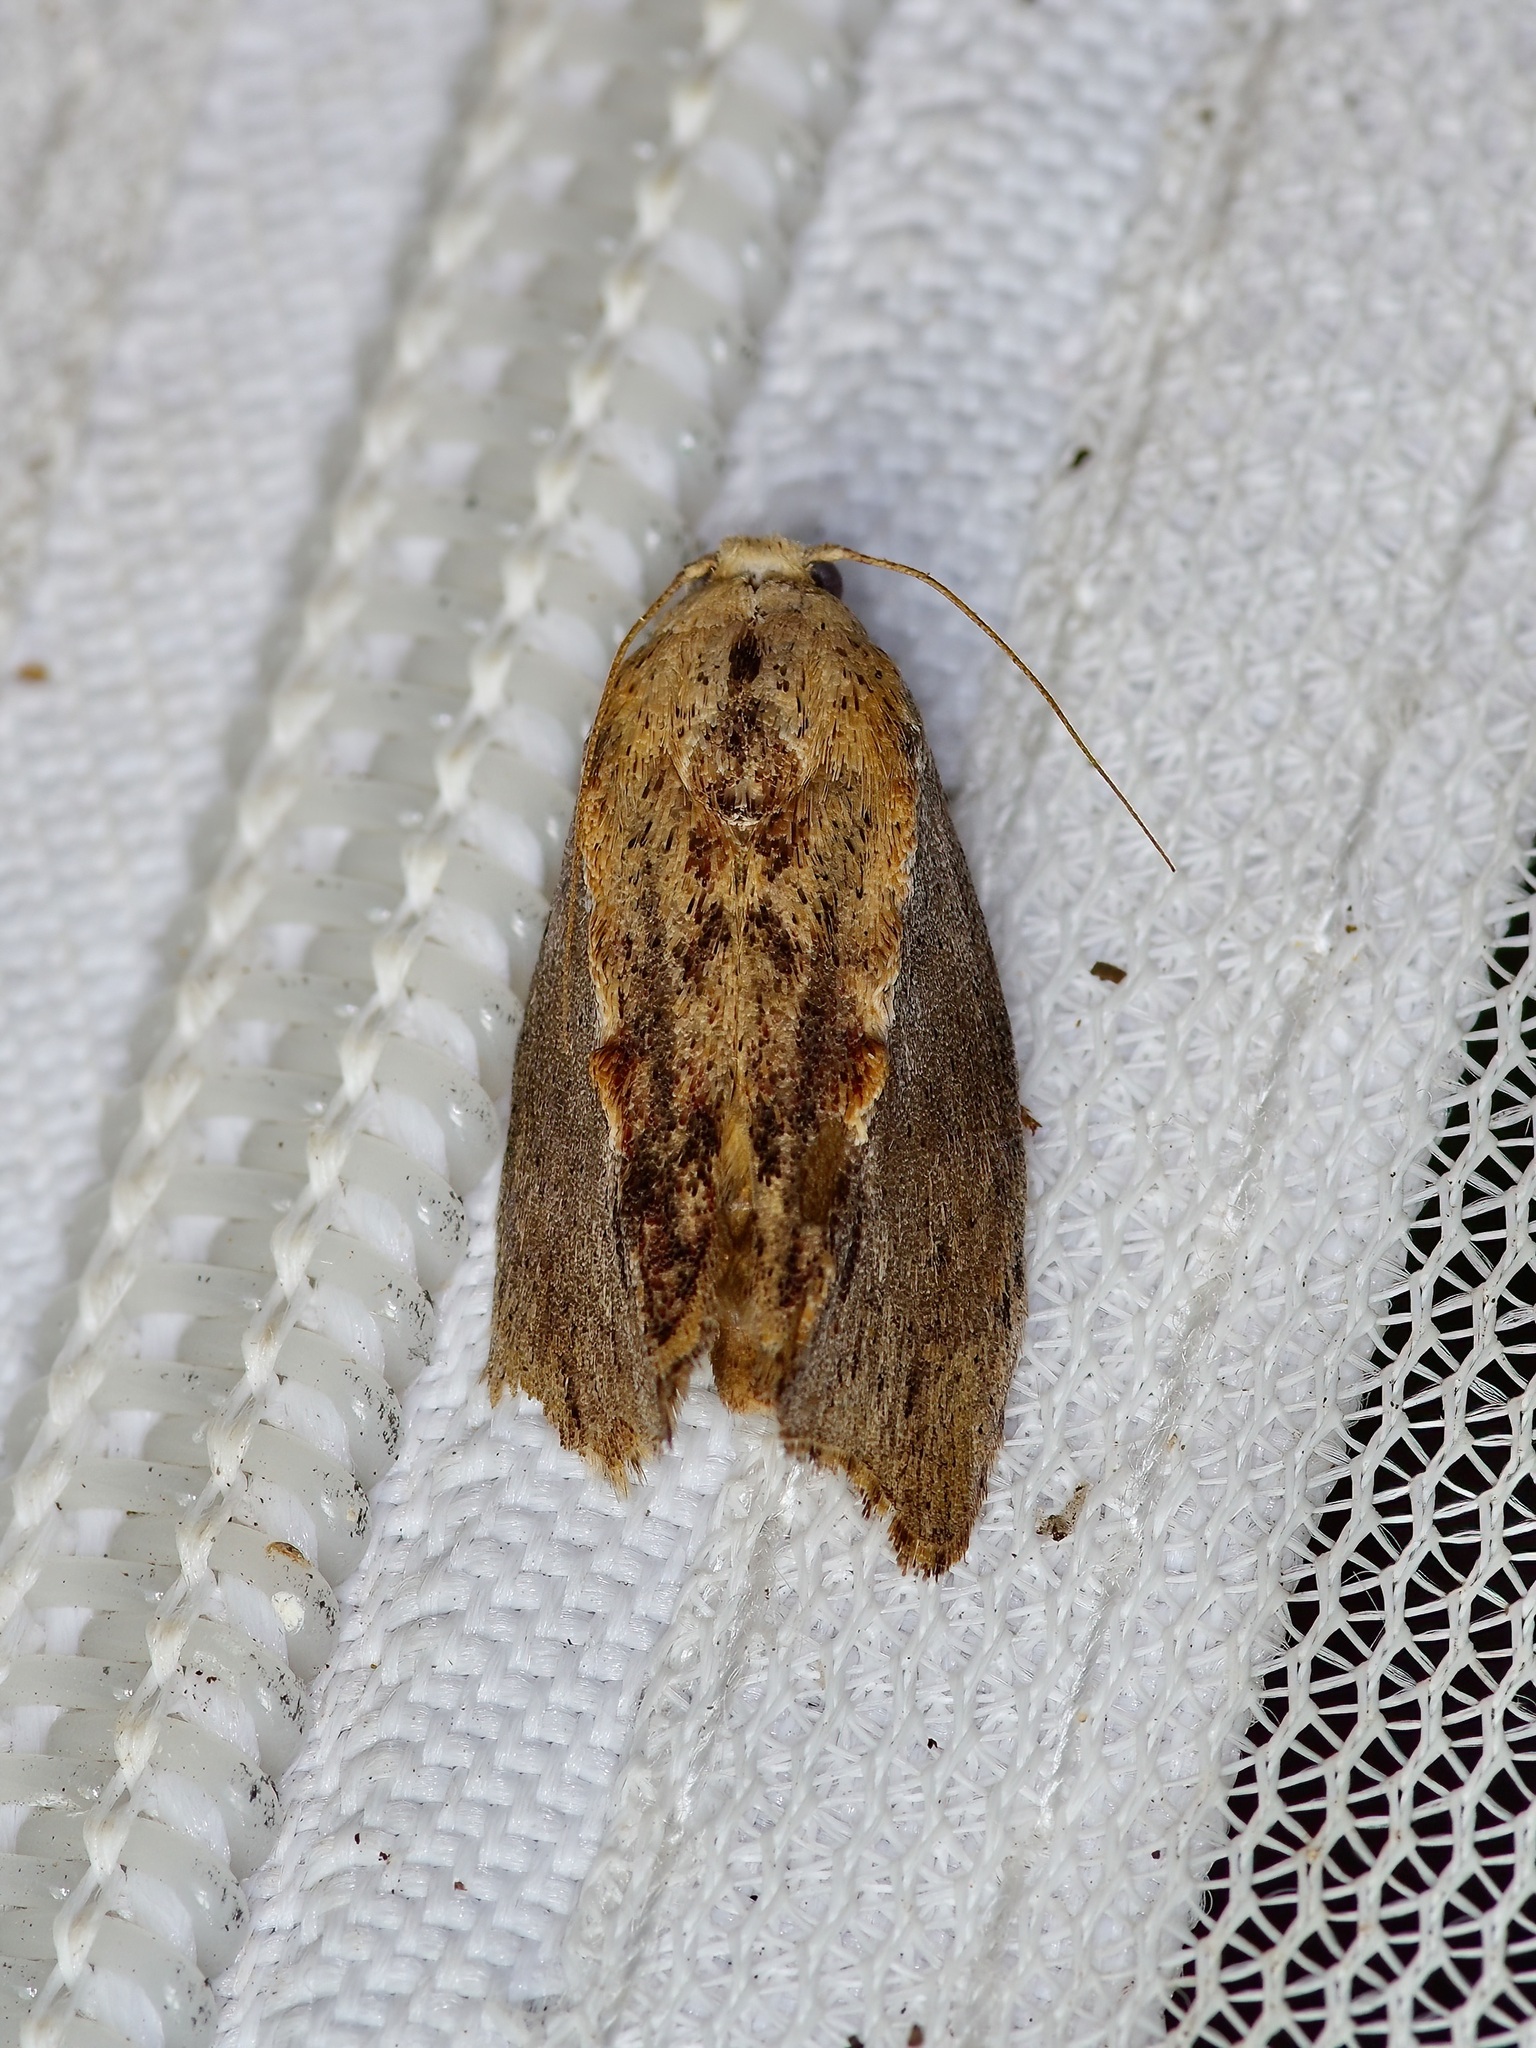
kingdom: Animalia
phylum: Arthropoda
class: Insecta
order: Lepidoptera
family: Pyralidae
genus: Galleria
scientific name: Galleria mellonella
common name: Greater wax moth
